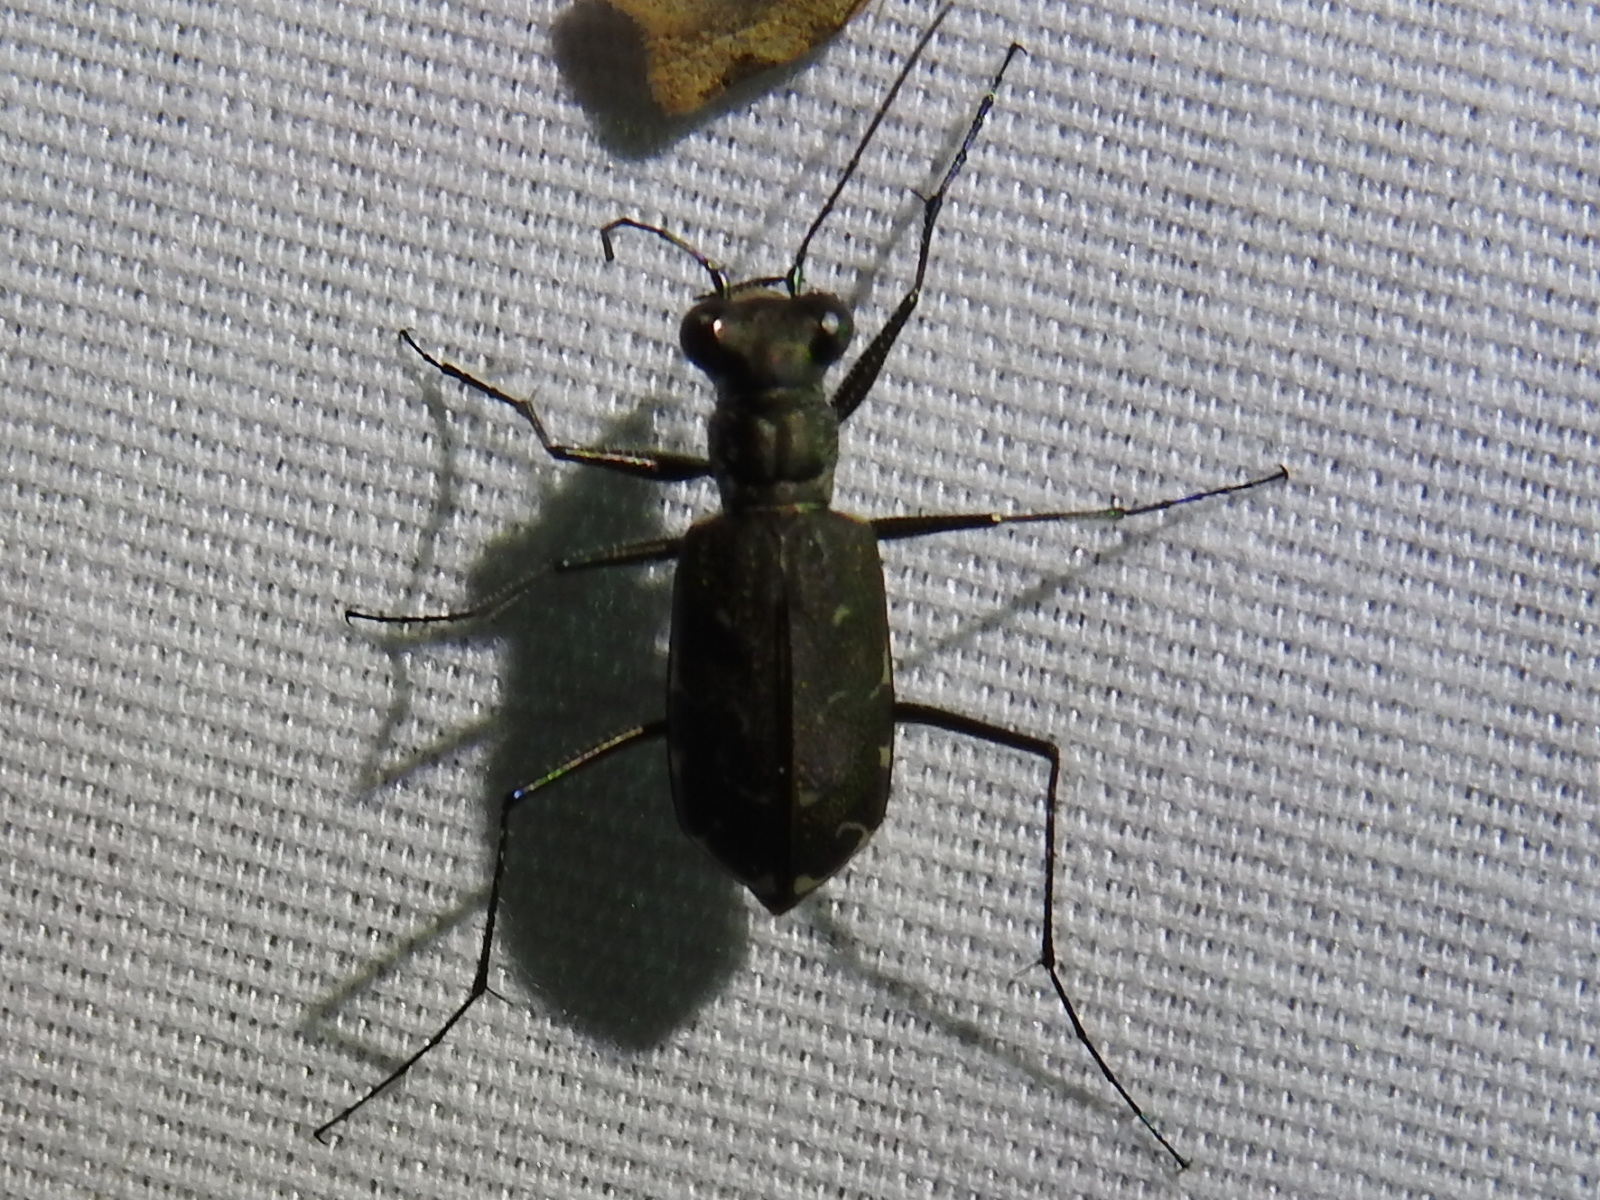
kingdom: Animalia
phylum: Arthropoda
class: Insecta
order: Coleoptera
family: Carabidae
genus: Cicindela
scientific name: Cicindela trifasciata
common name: Mudflat tiger beetle
